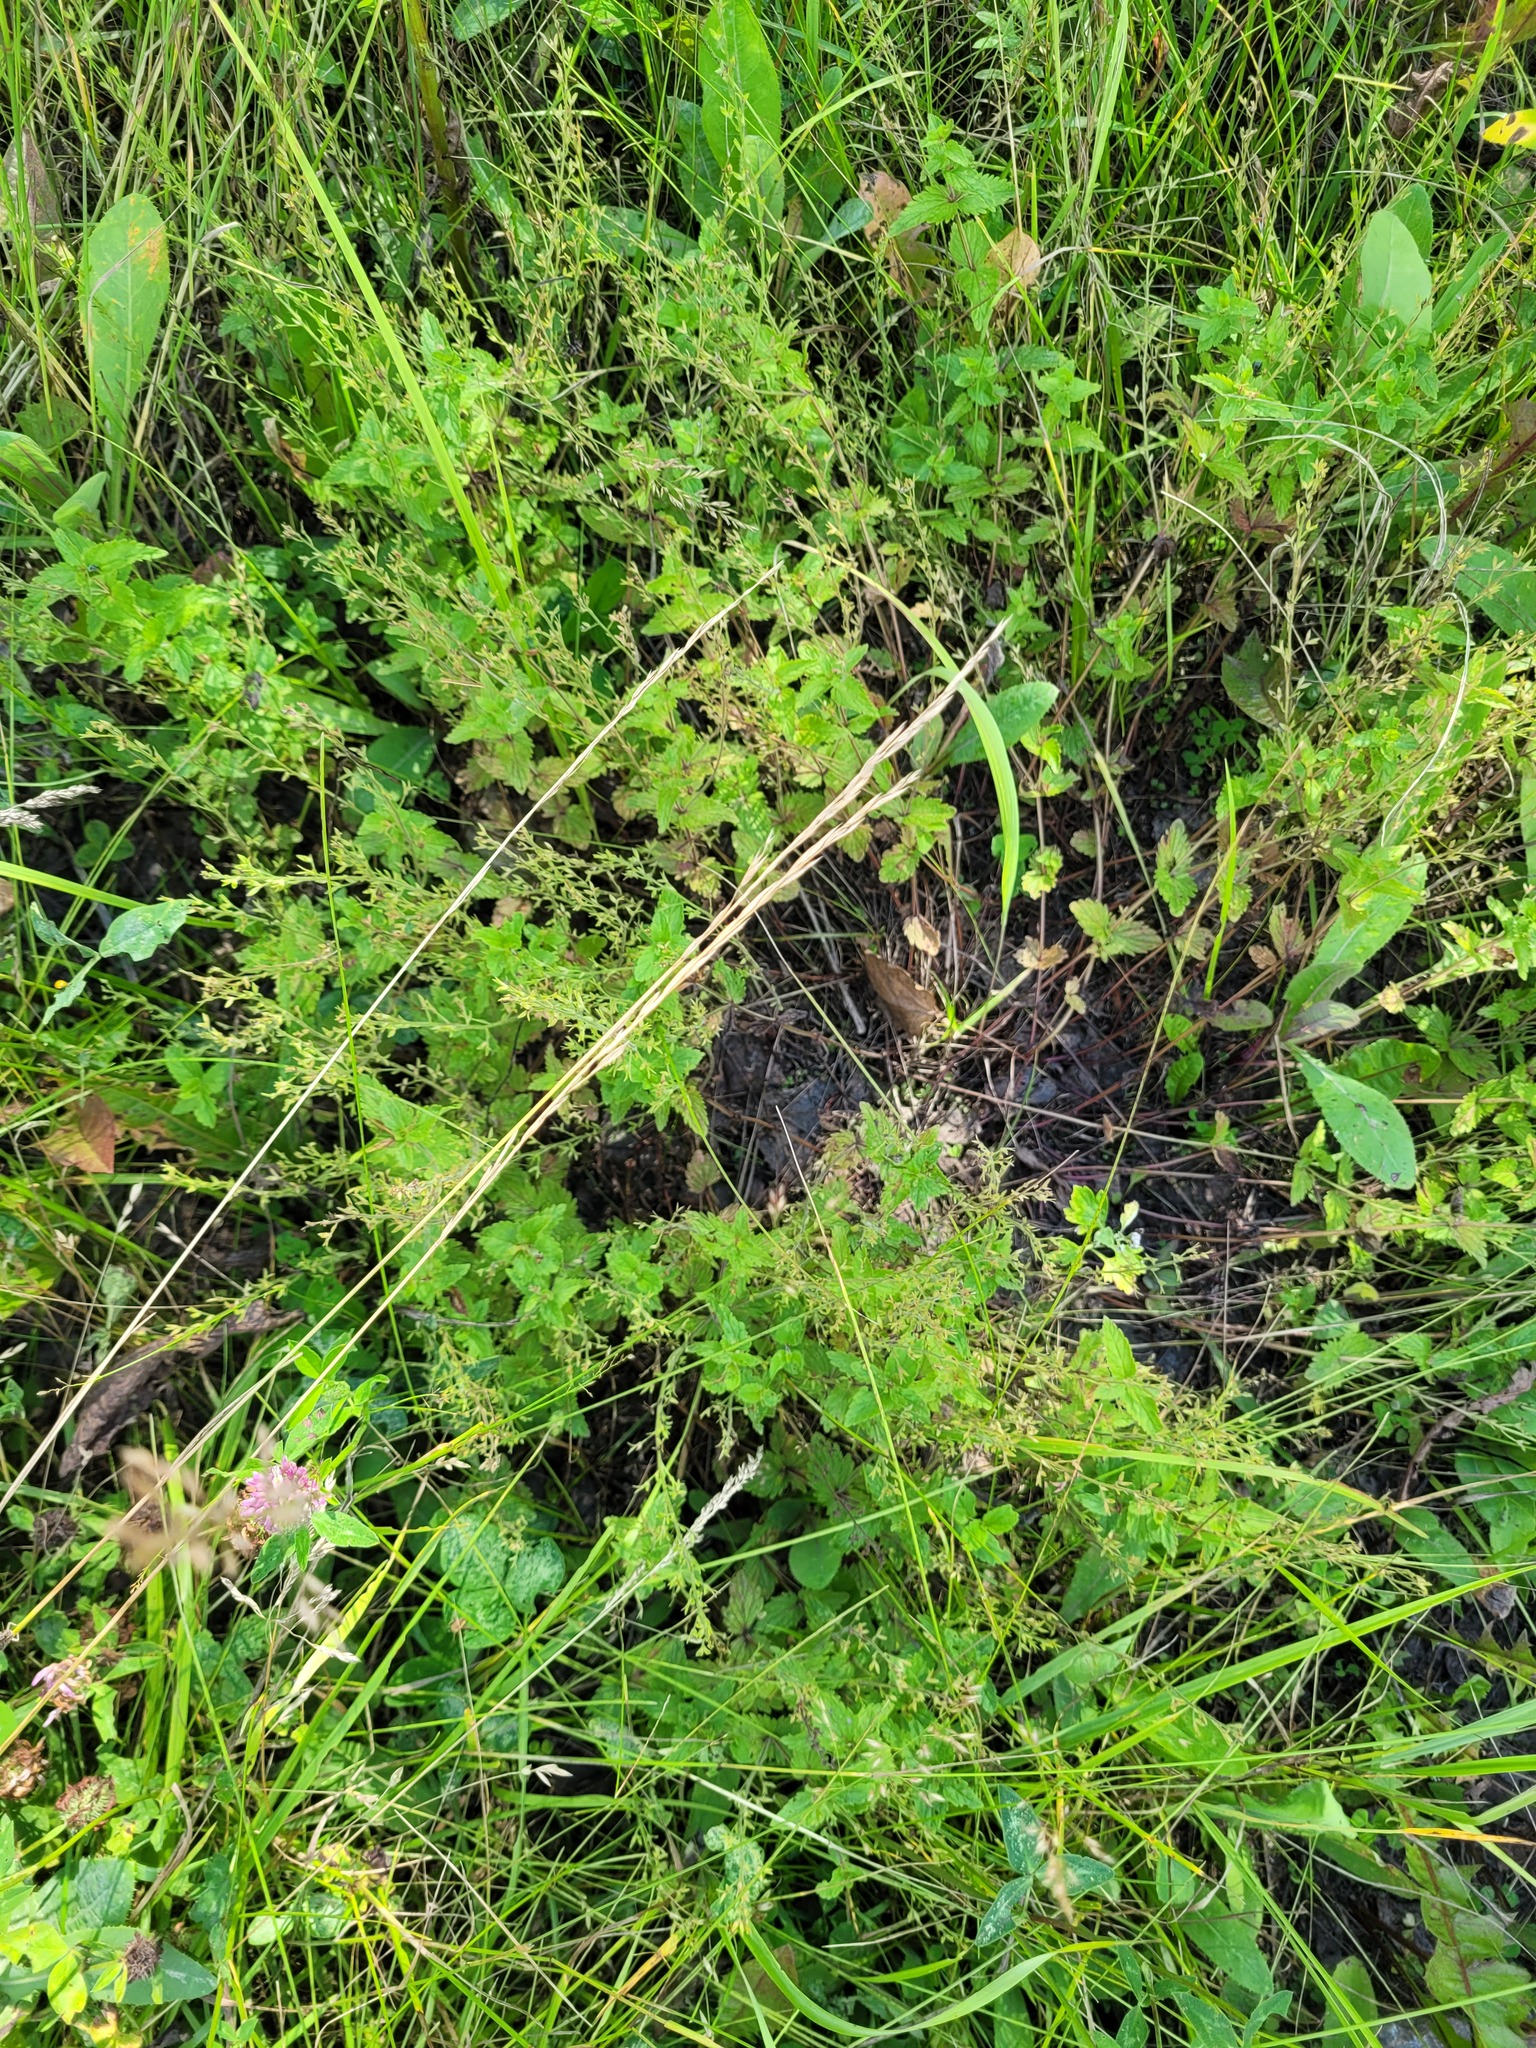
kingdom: Plantae
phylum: Tracheophyta
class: Magnoliopsida
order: Lamiales
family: Plantaginaceae
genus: Veronica
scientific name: Veronica chamaedrys
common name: Germander speedwell
